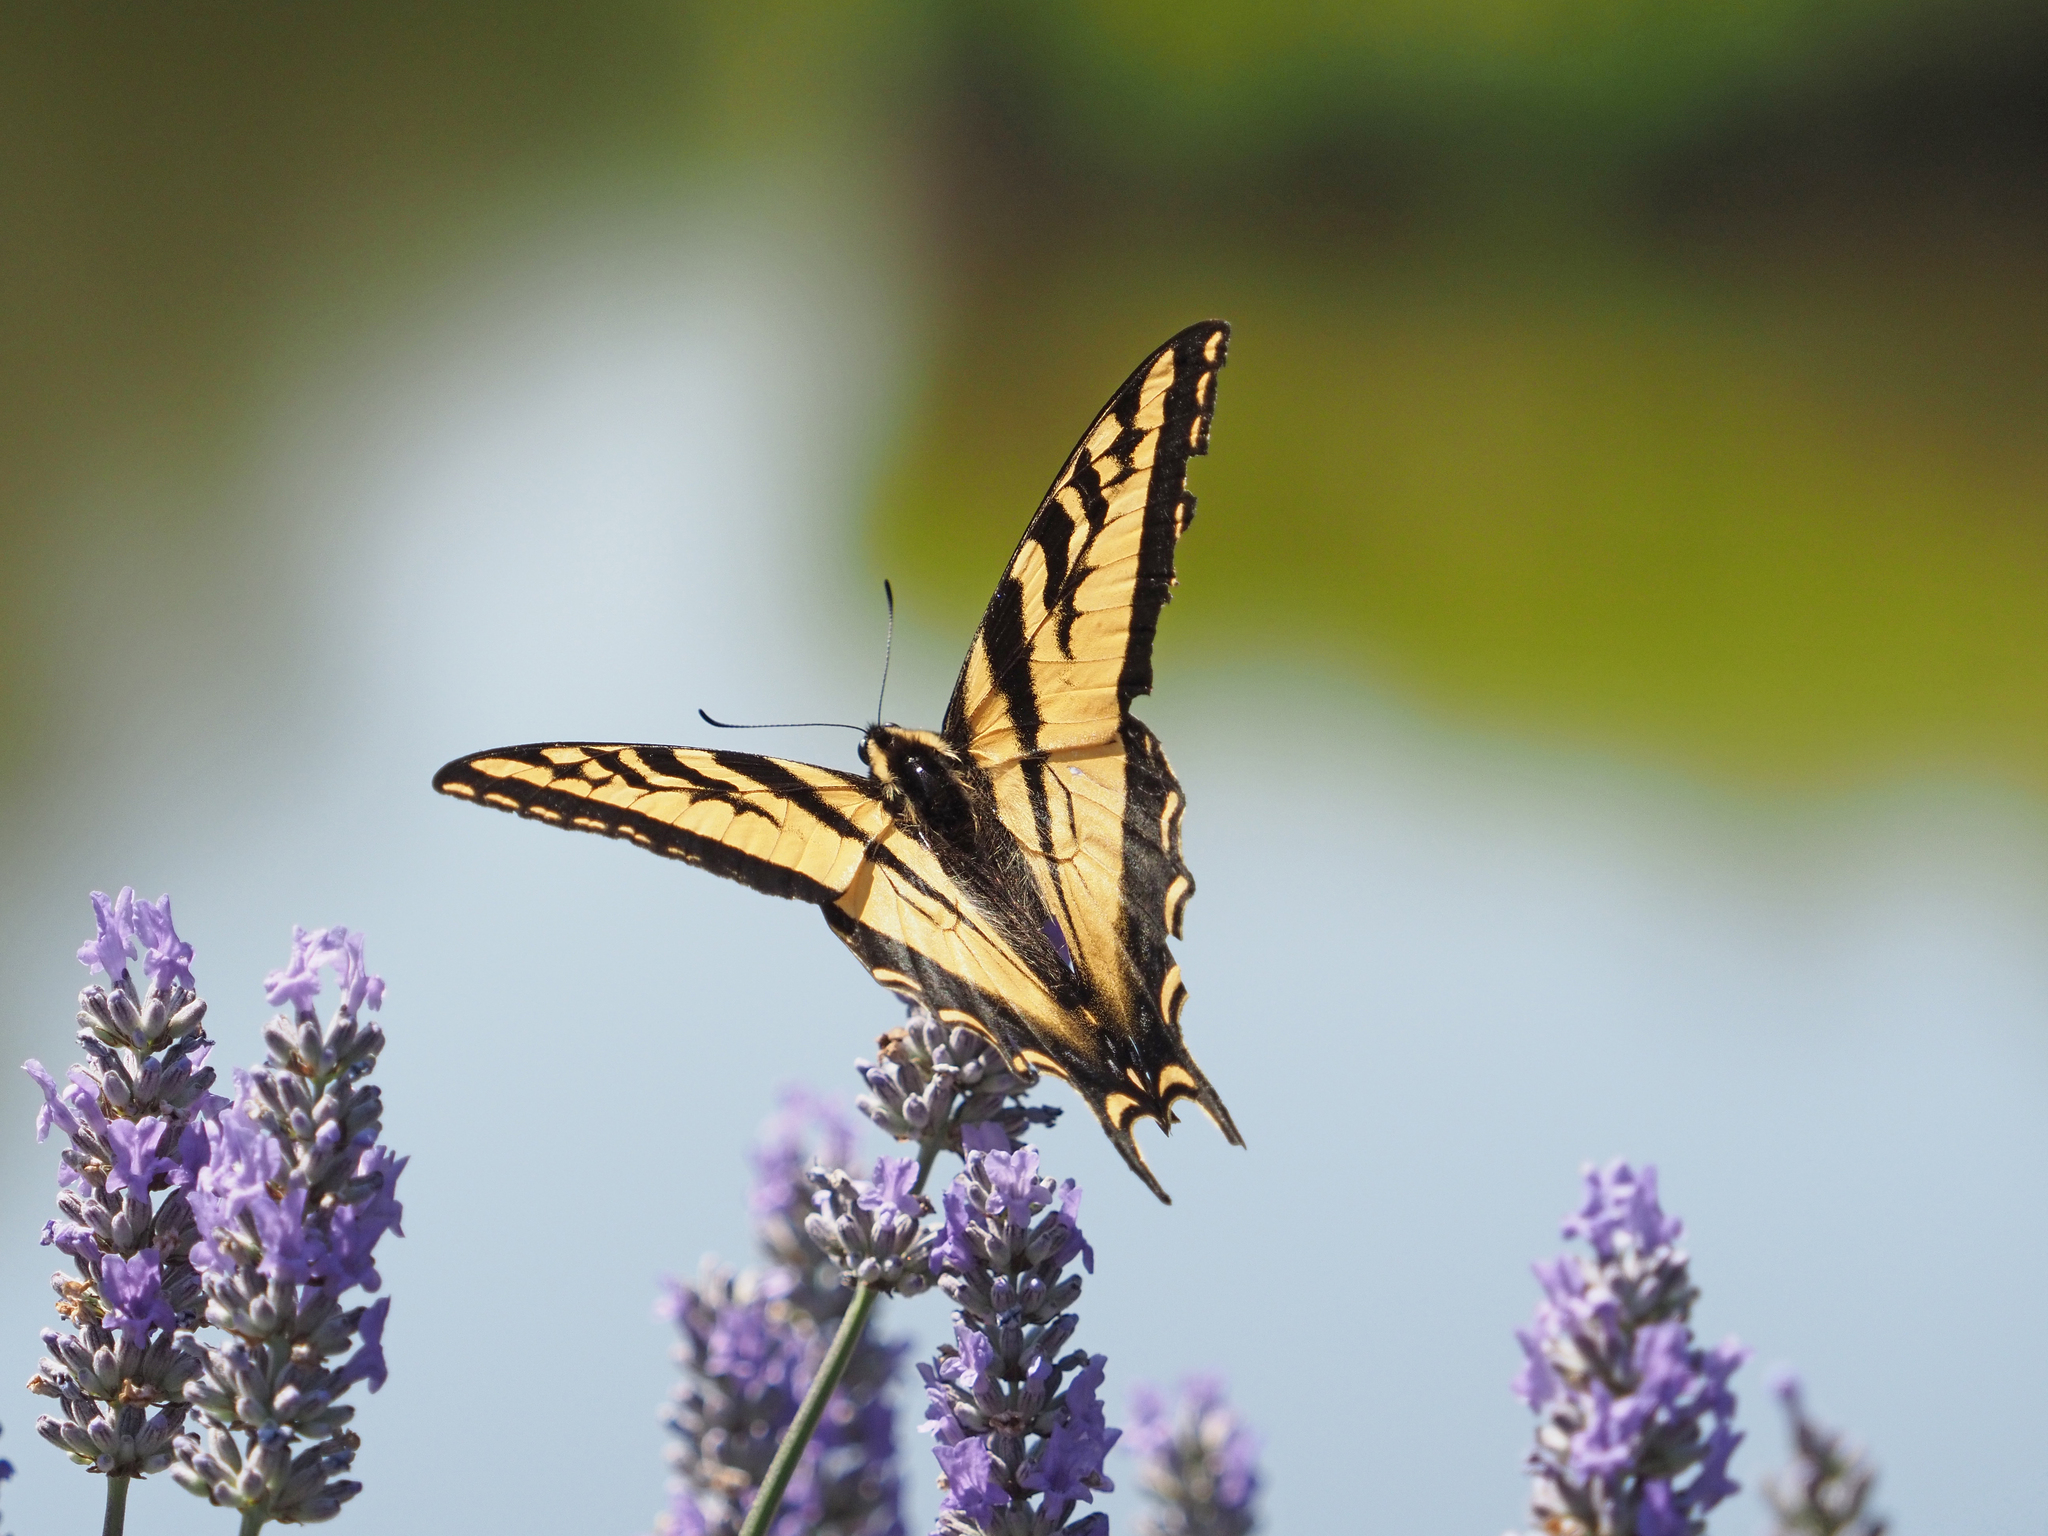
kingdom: Animalia
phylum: Arthropoda
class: Insecta
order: Lepidoptera
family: Papilionidae
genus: Papilio
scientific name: Papilio rutulus
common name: Western tiger swallowtail
